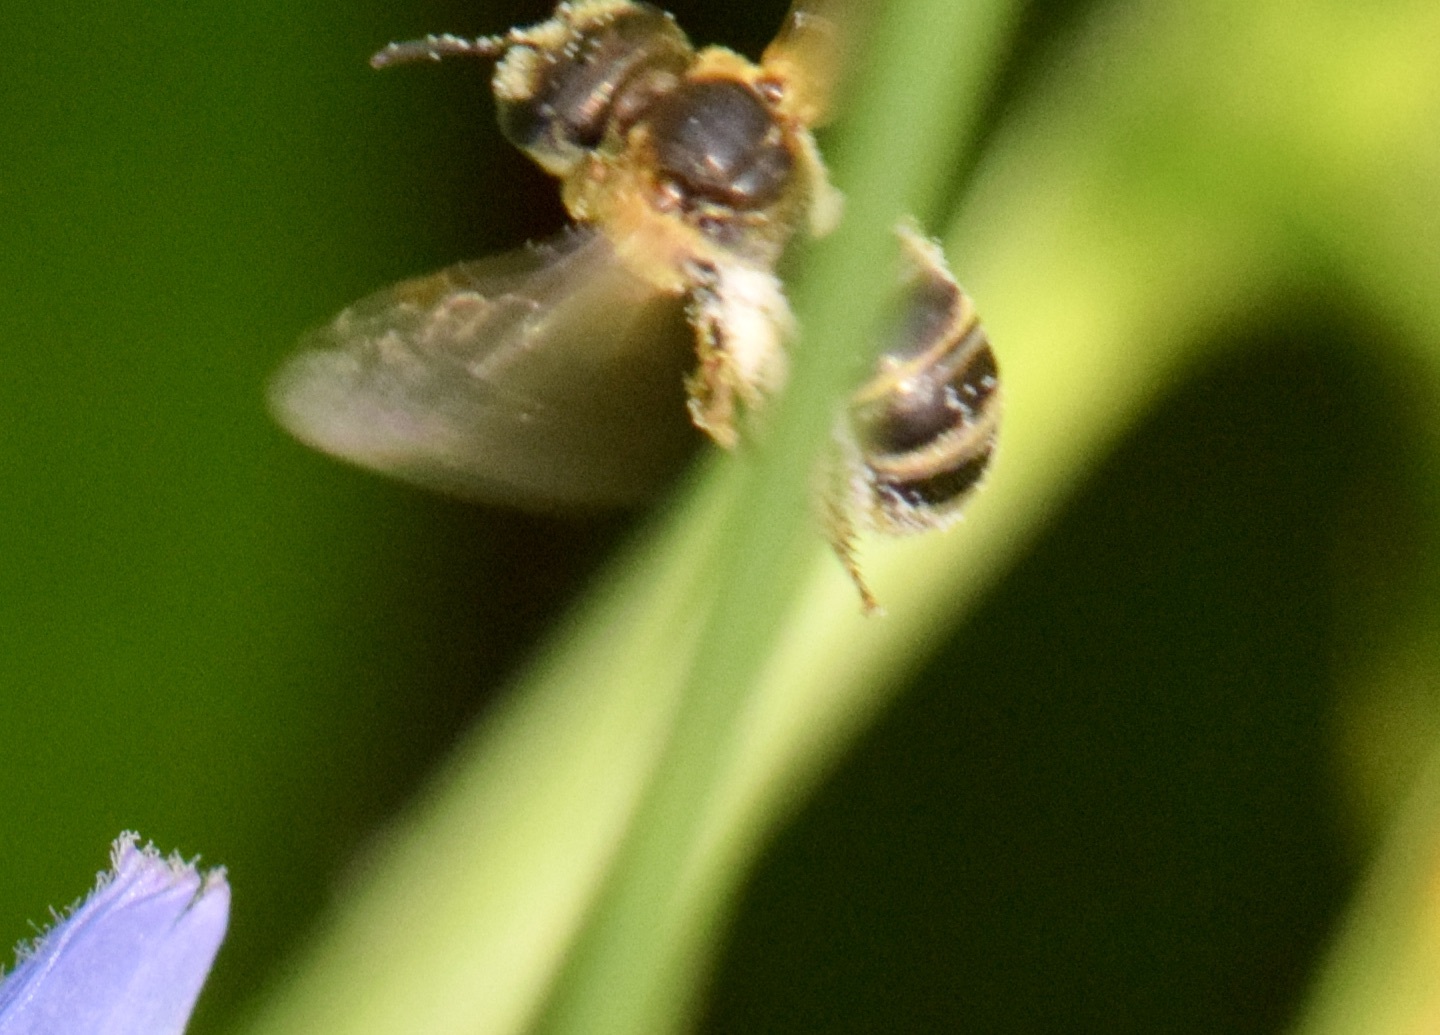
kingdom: Animalia
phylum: Arthropoda
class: Insecta
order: Hymenoptera
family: Halictidae
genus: Halictus
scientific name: Halictus ligatus
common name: Ligated furrow bee
